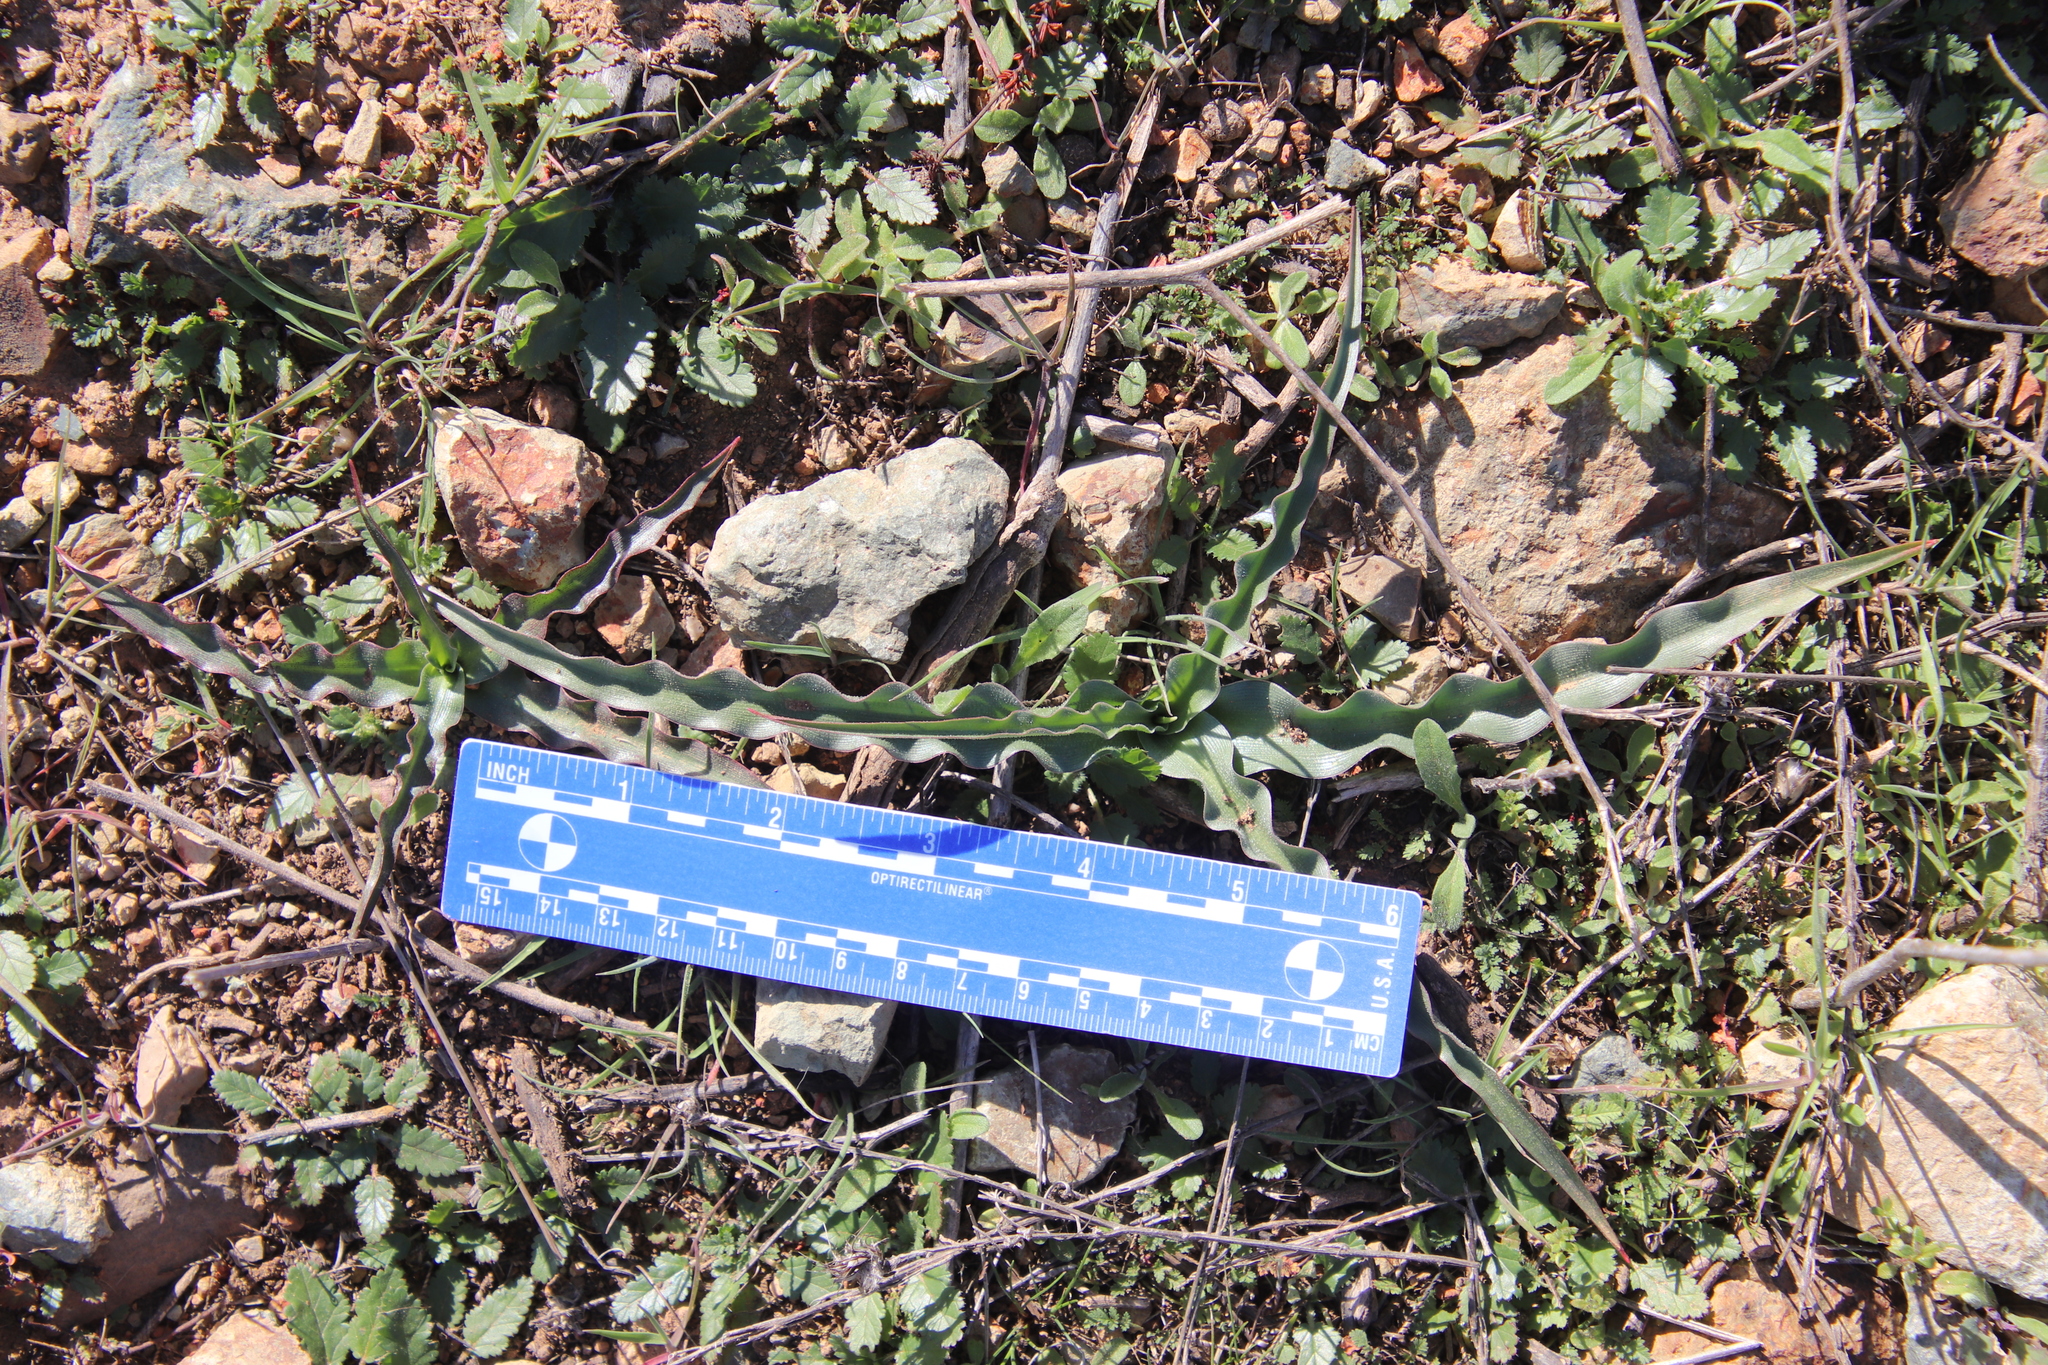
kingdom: Plantae
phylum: Tracheophyta
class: Liliopsida
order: Asparagales
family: Asparagaceae
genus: Hooveria
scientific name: Hooveria parviflora
